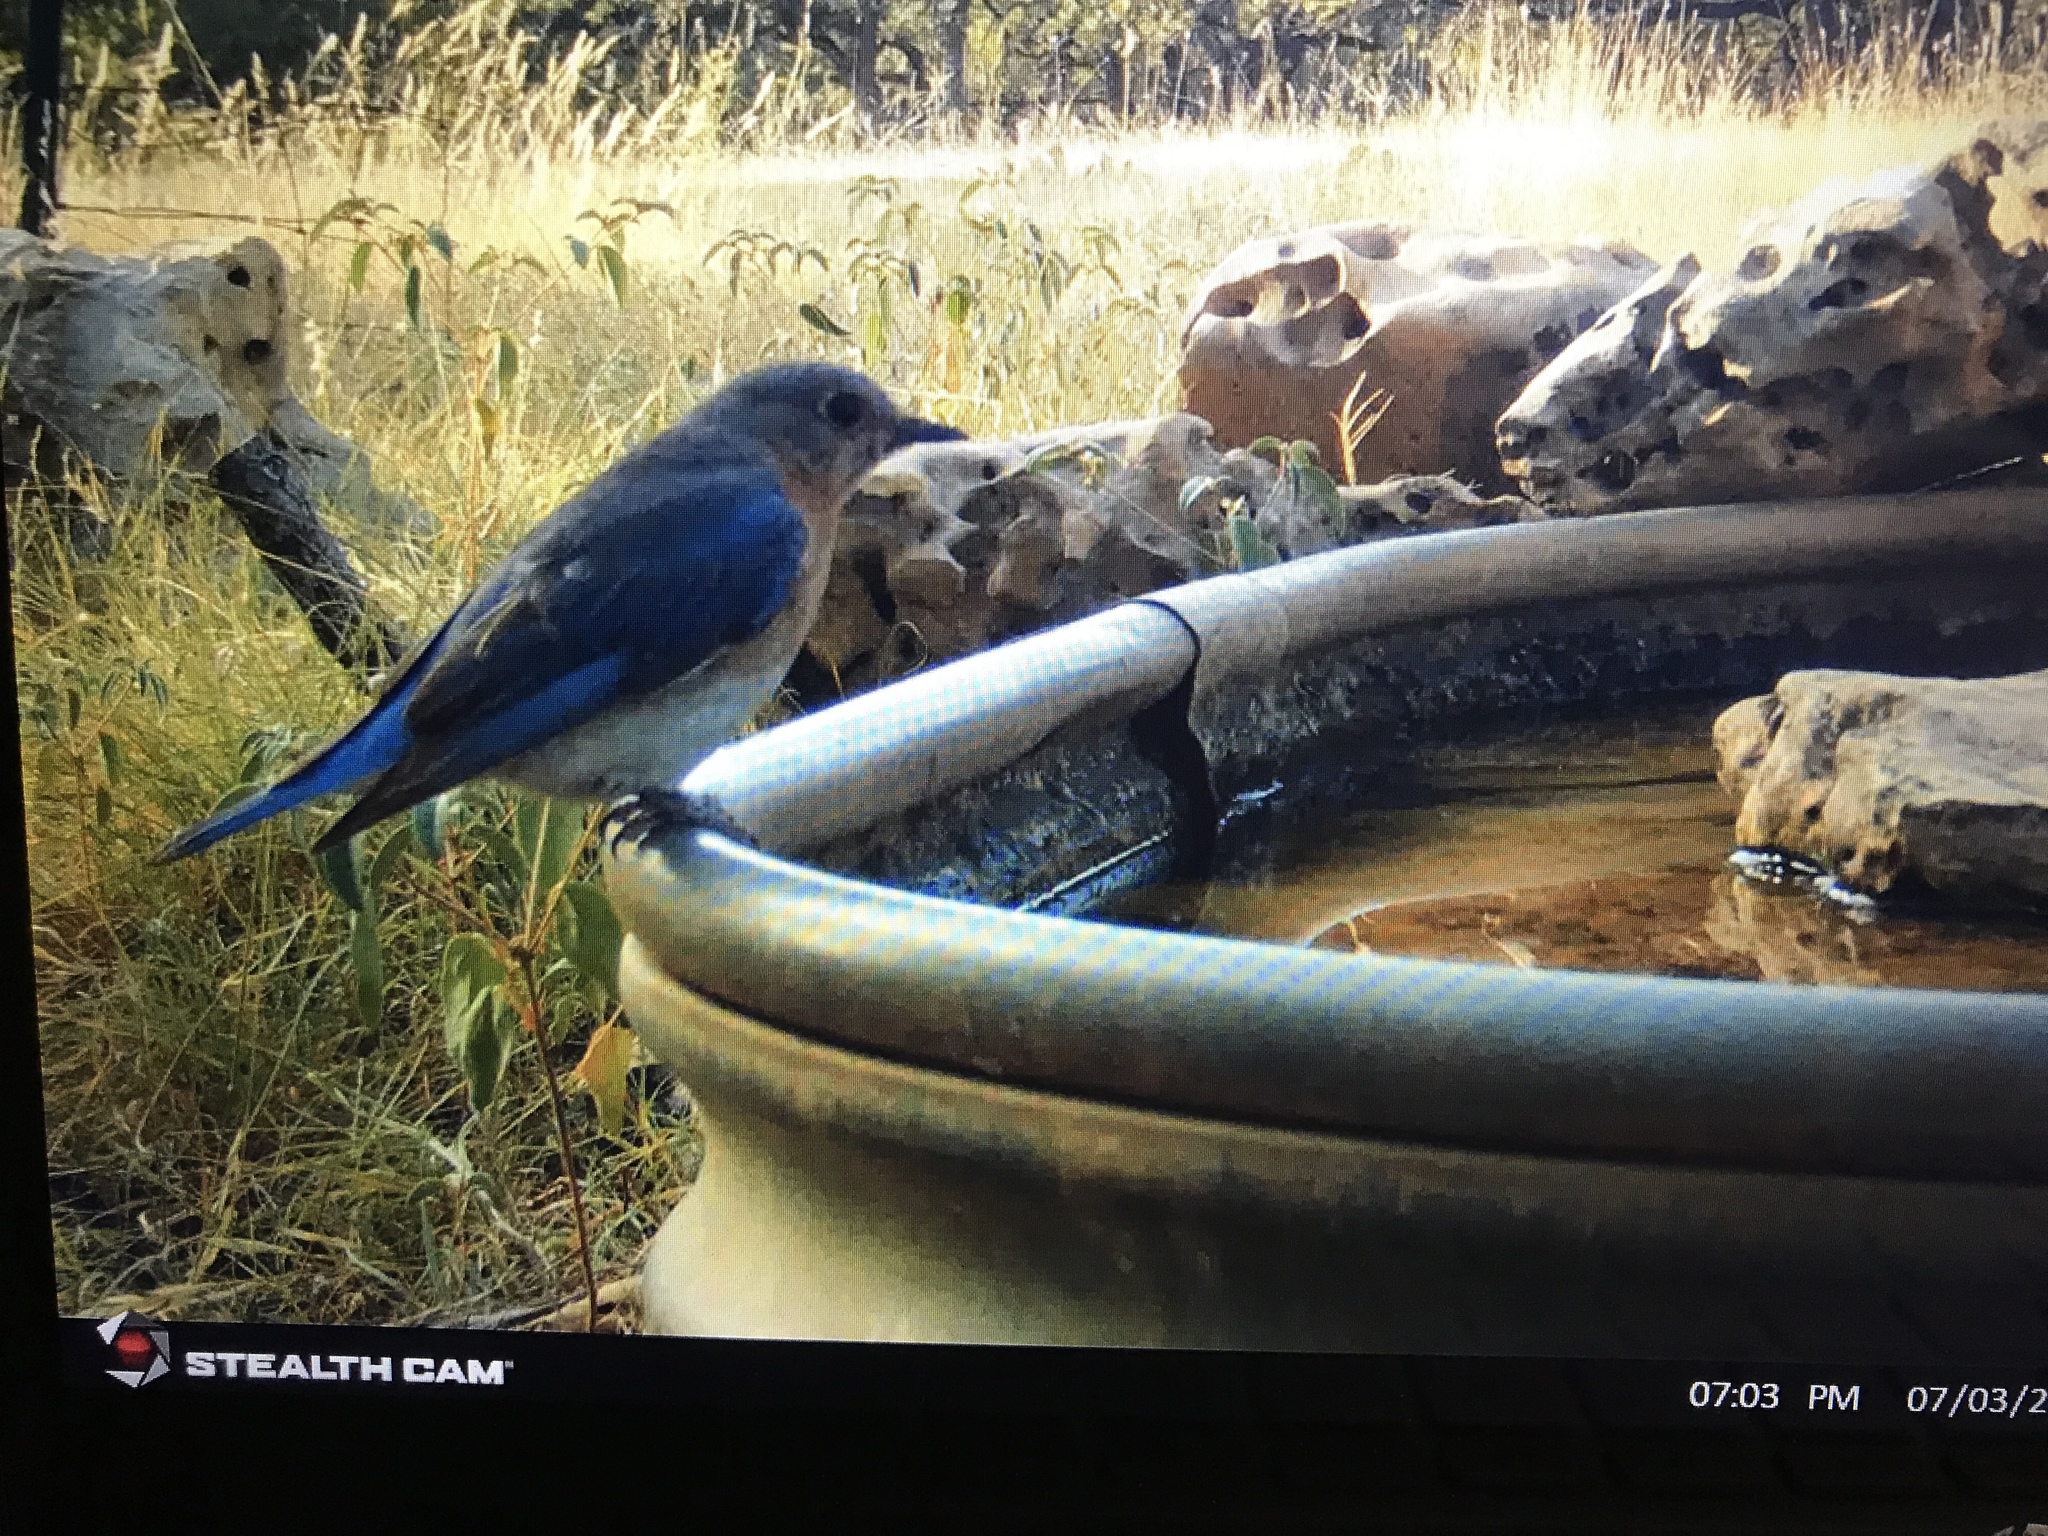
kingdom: Animalia
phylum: Chordata
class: Aves
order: Passeriformes
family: Turdidae
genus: Sialia
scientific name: Sialia sialis
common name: Eastern bluebird
